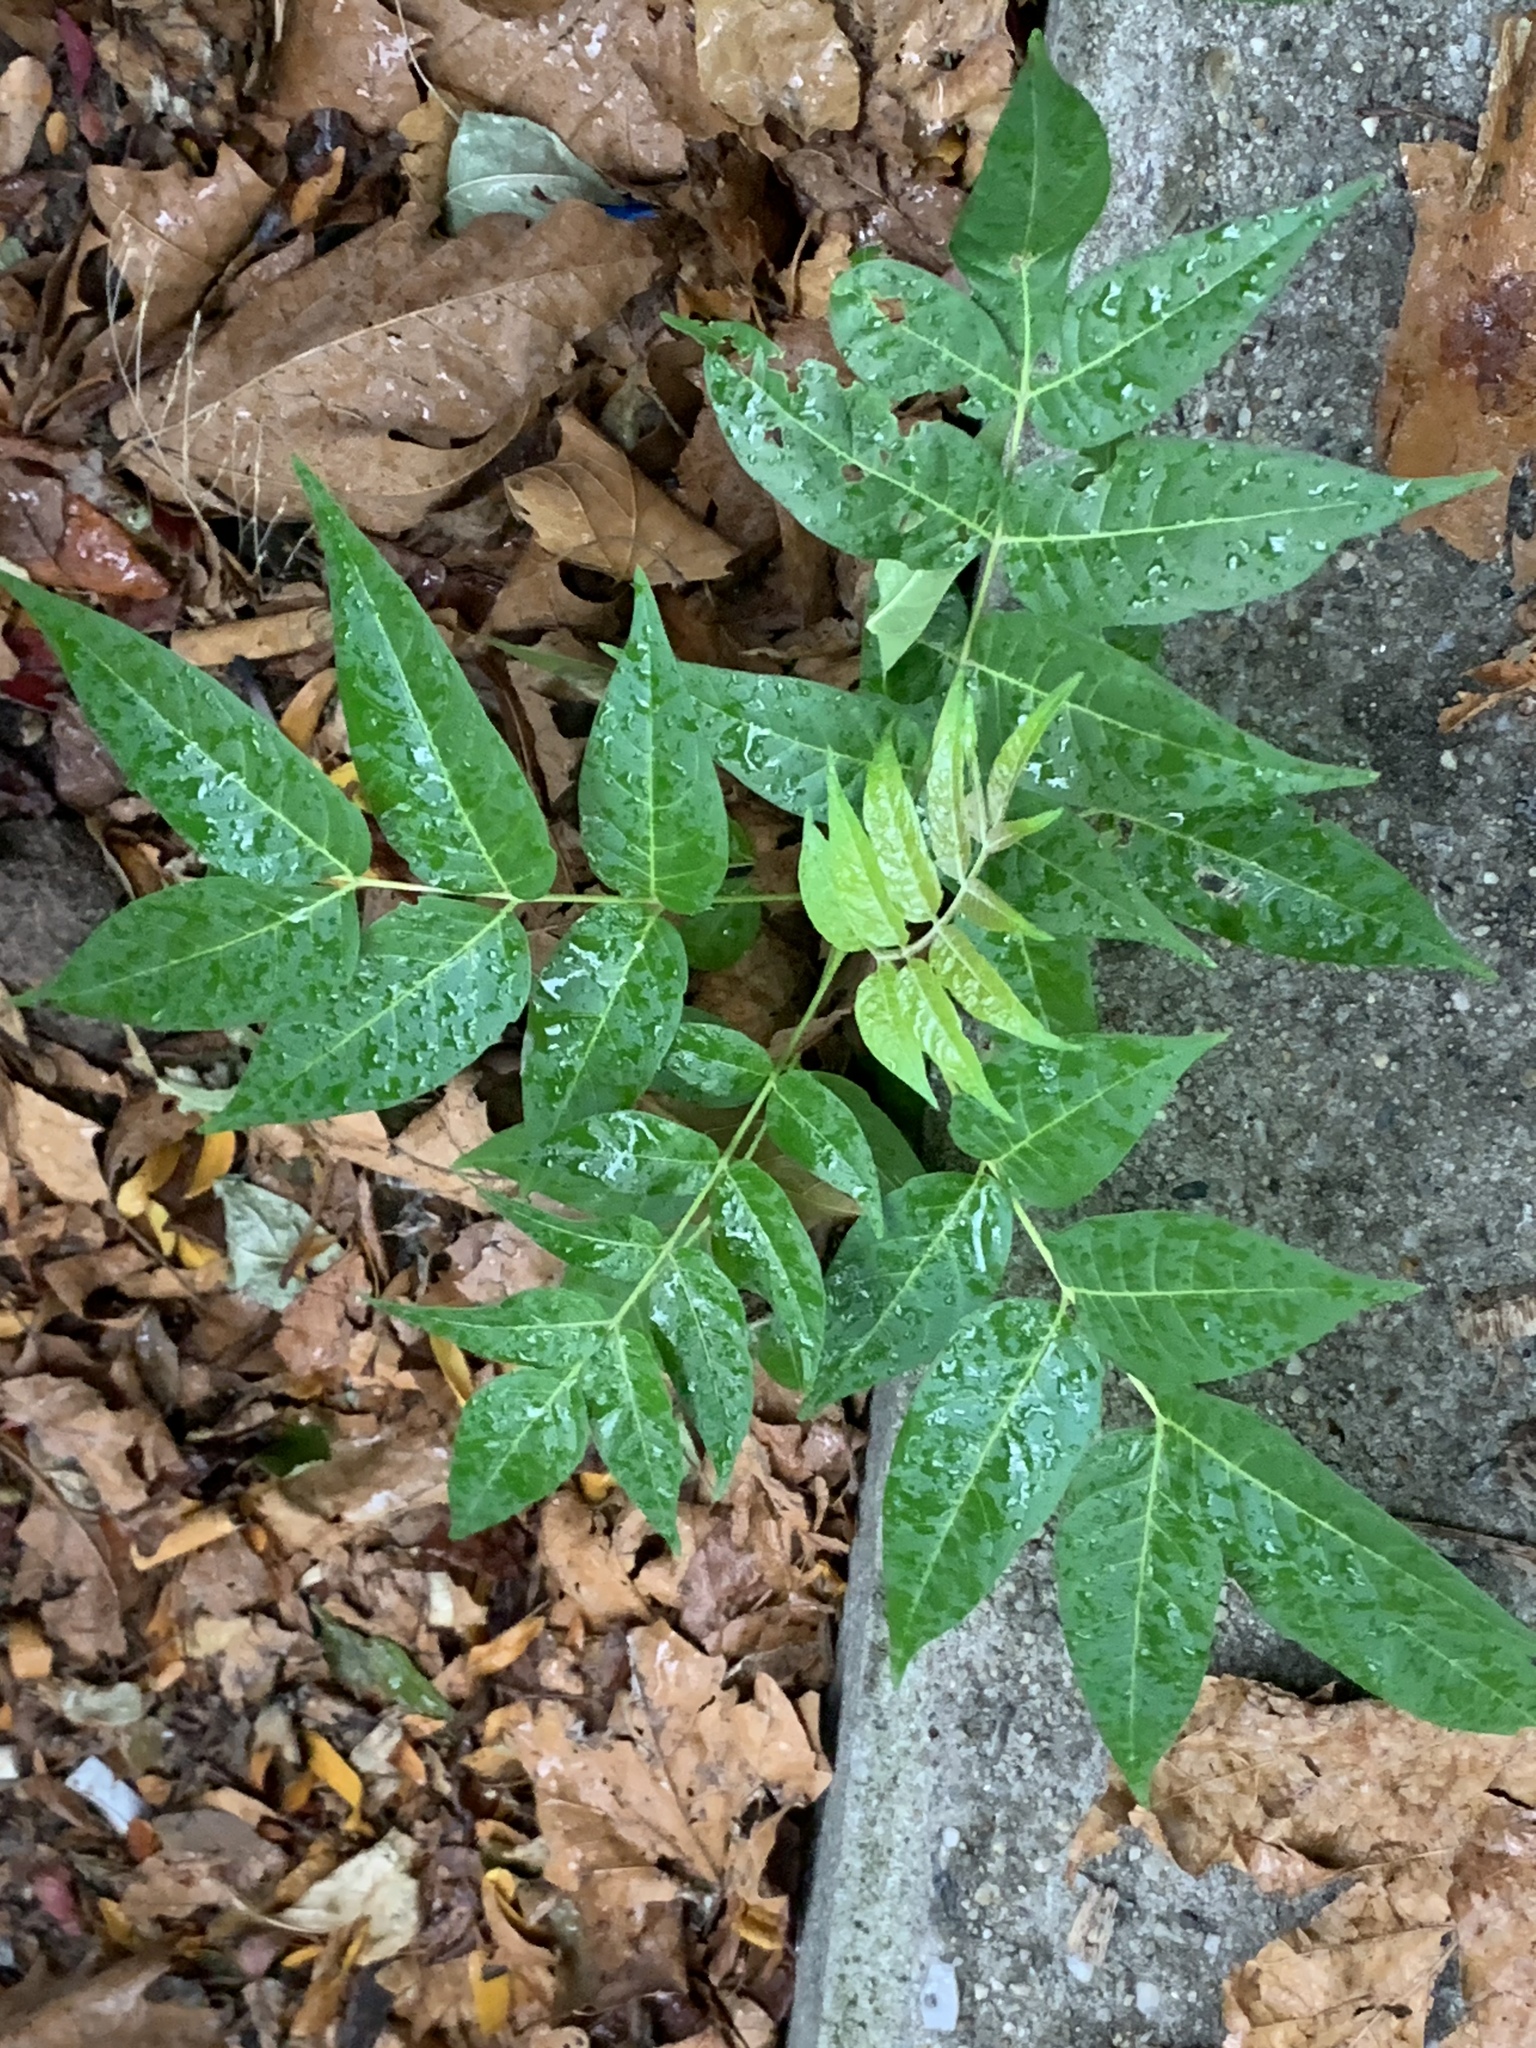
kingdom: Plantae
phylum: Tracheophyta
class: Magnoliopsida
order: Sapindales
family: Simaroubaceae
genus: Ailanthus
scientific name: Ailanthus altissima
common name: Tree-of-heaven
